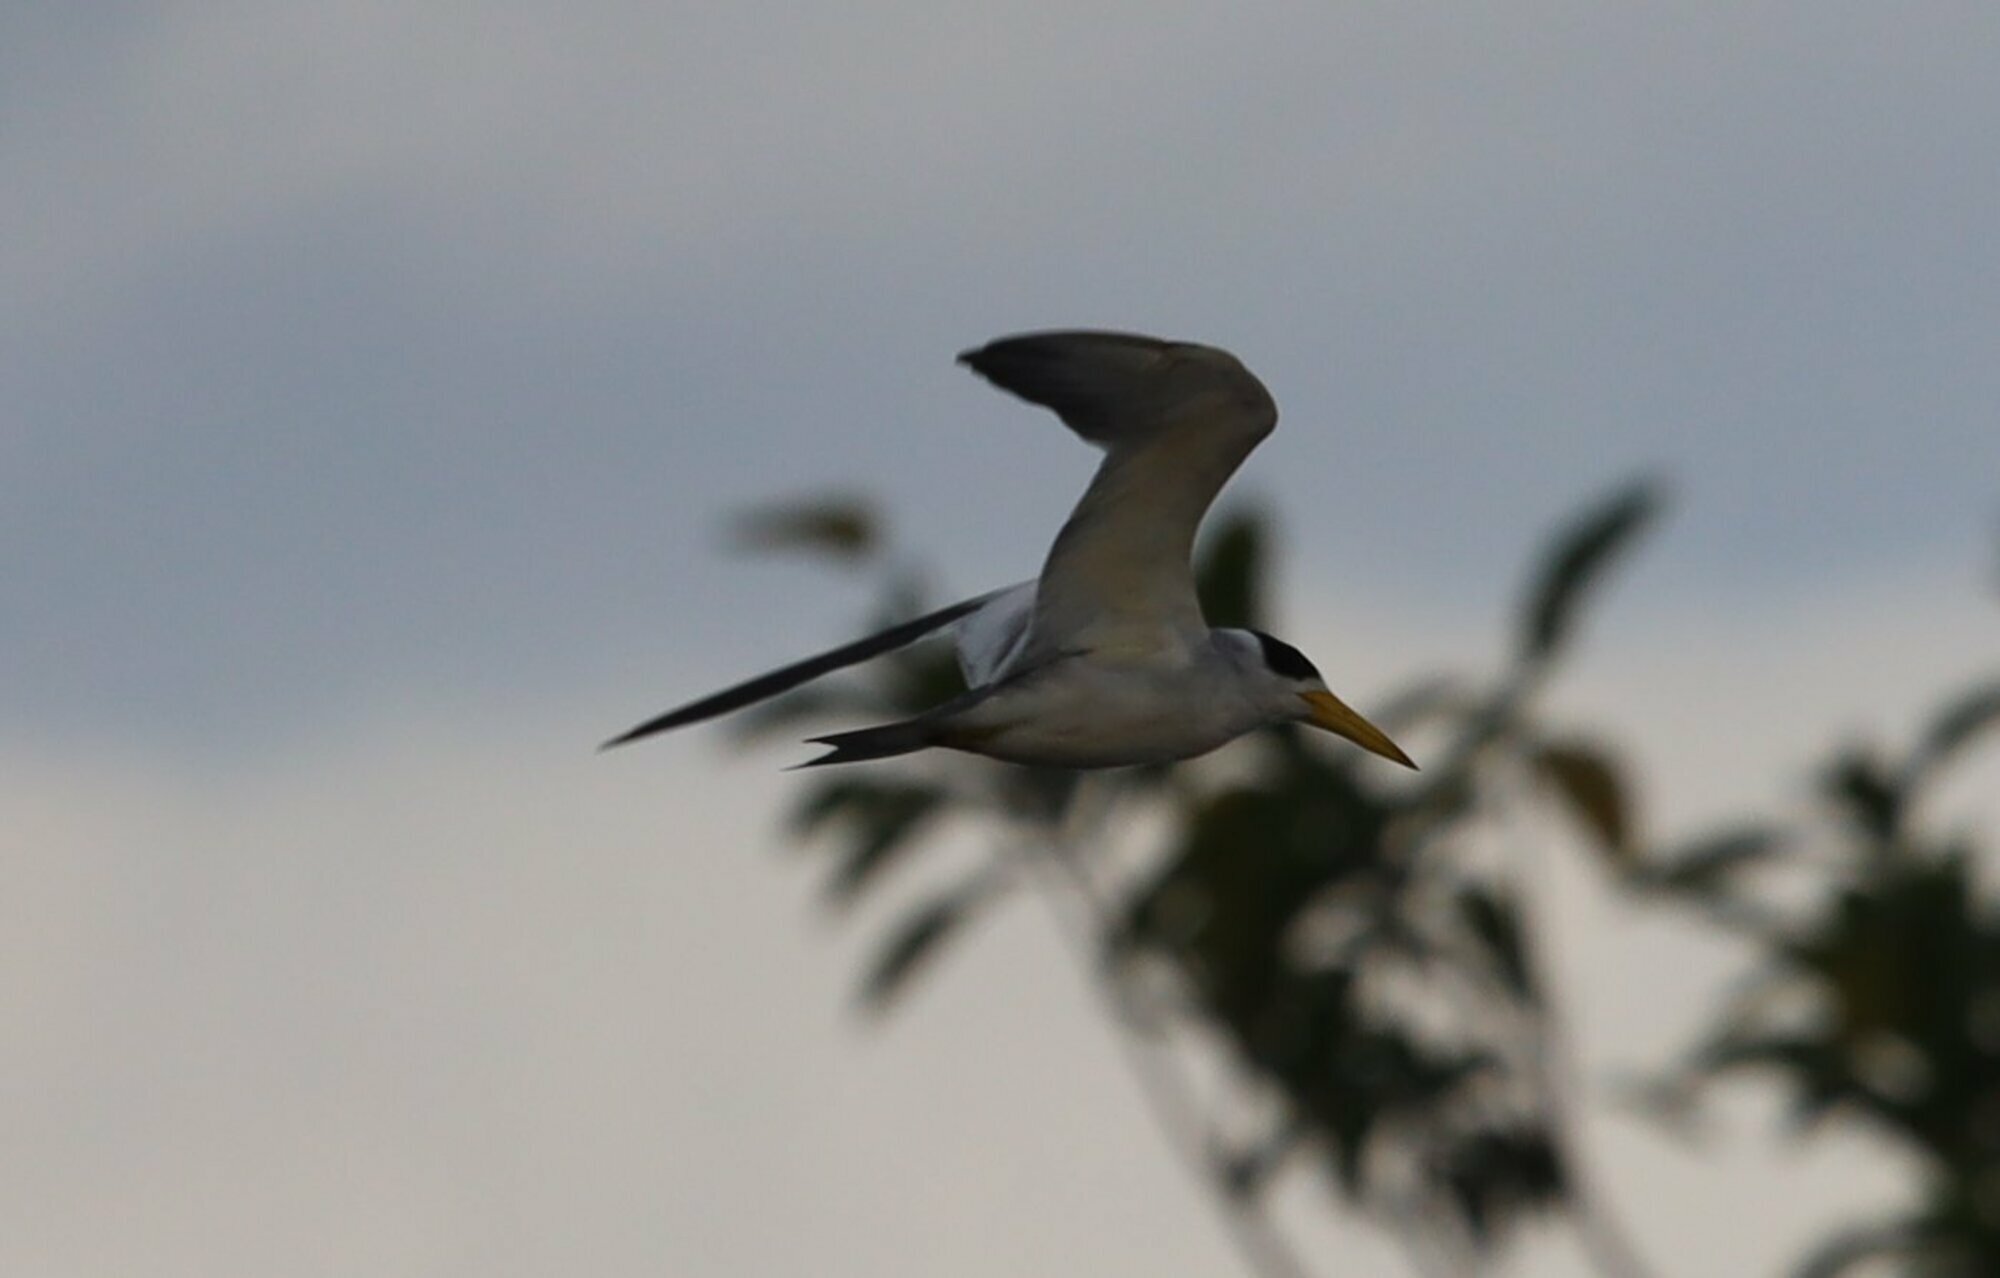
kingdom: Animalia
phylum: Chordata
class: Aves
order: Charadriiformes
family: Laridae
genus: Phaetusa
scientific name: Phaetusa simplex
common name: Large-billed tern
